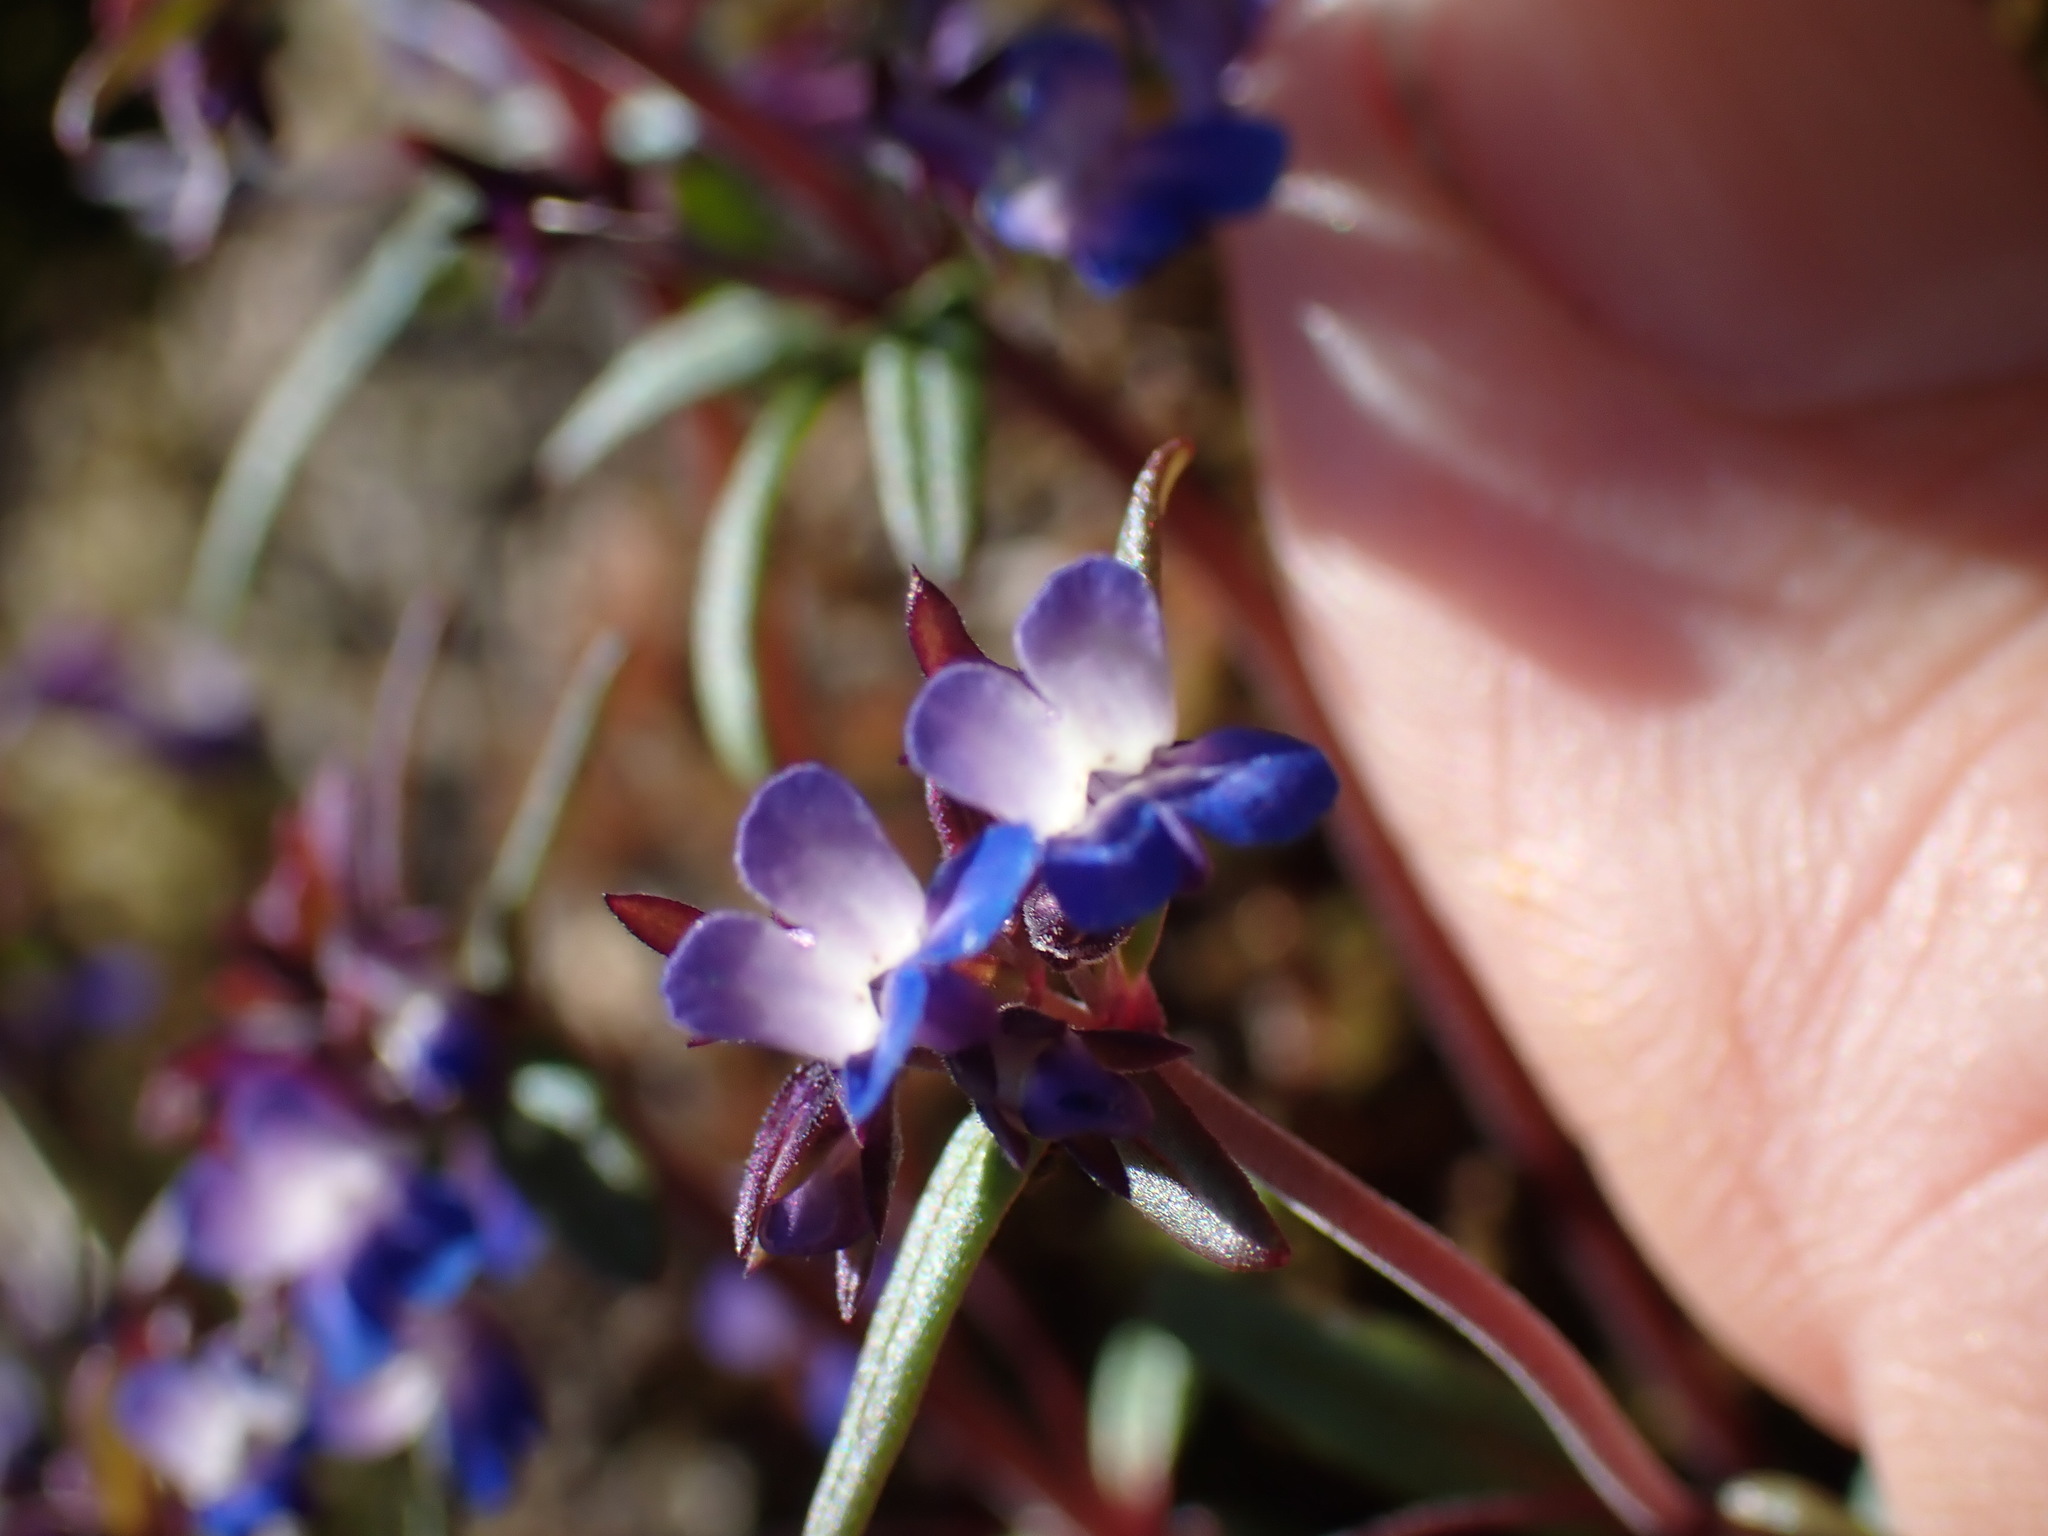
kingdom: Plantae
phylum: Tracheophyta
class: Magnoliopsida
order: Lamiales
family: Plantaginaceae
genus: Collinsia
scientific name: Collinsia parviflora
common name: Blue-lips
